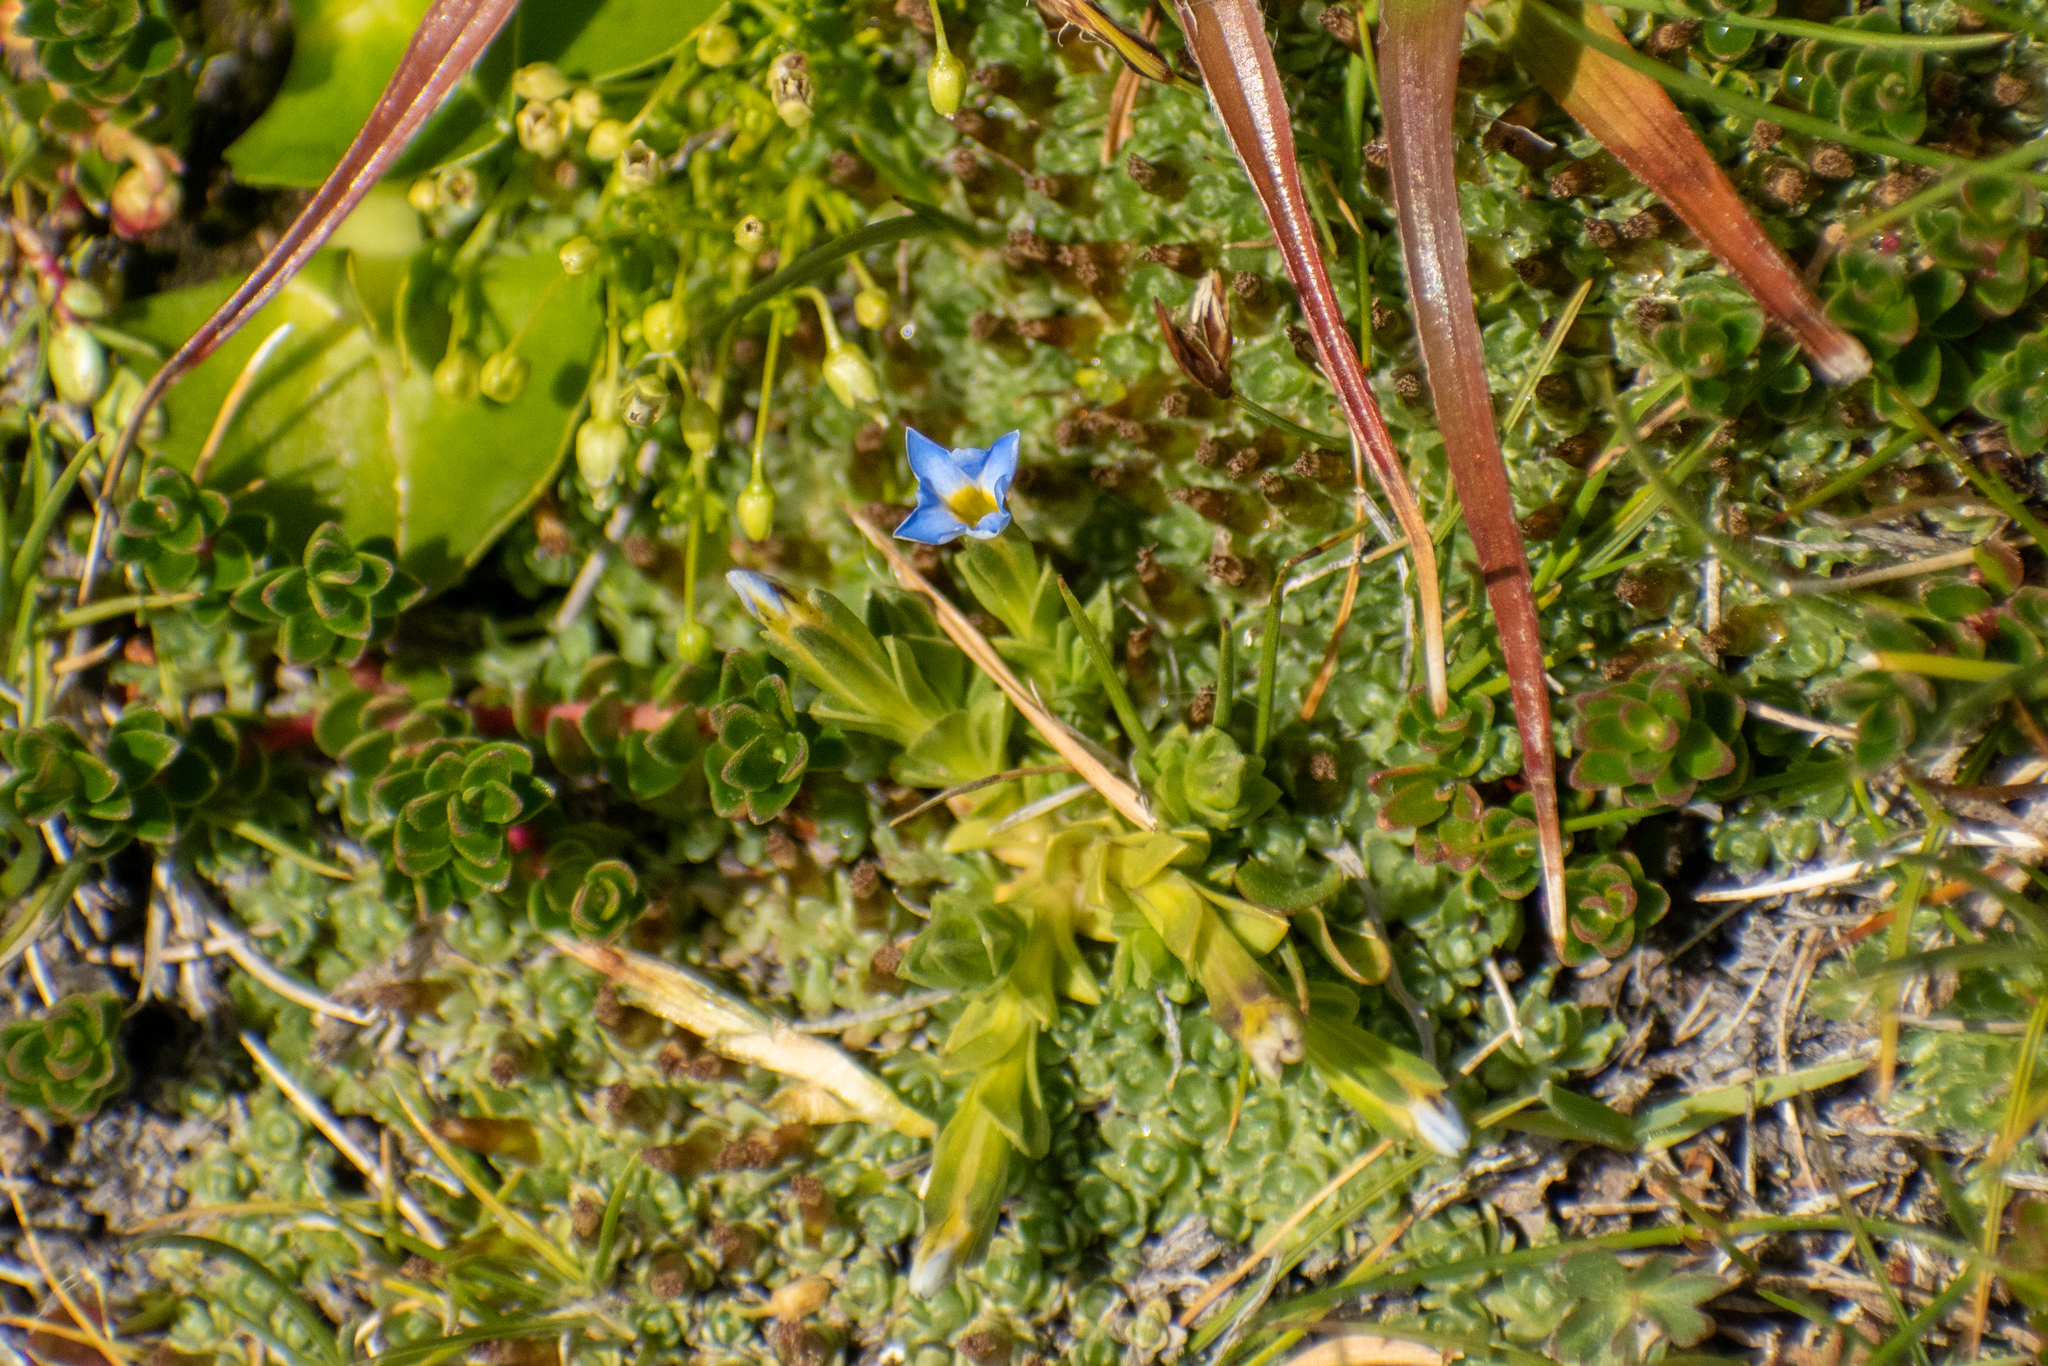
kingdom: Plantae
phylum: Tracheophyta
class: Magnoliopsida
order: Gentianales
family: Gentianaceae
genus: Gentiana
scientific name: Gentiana gayi
